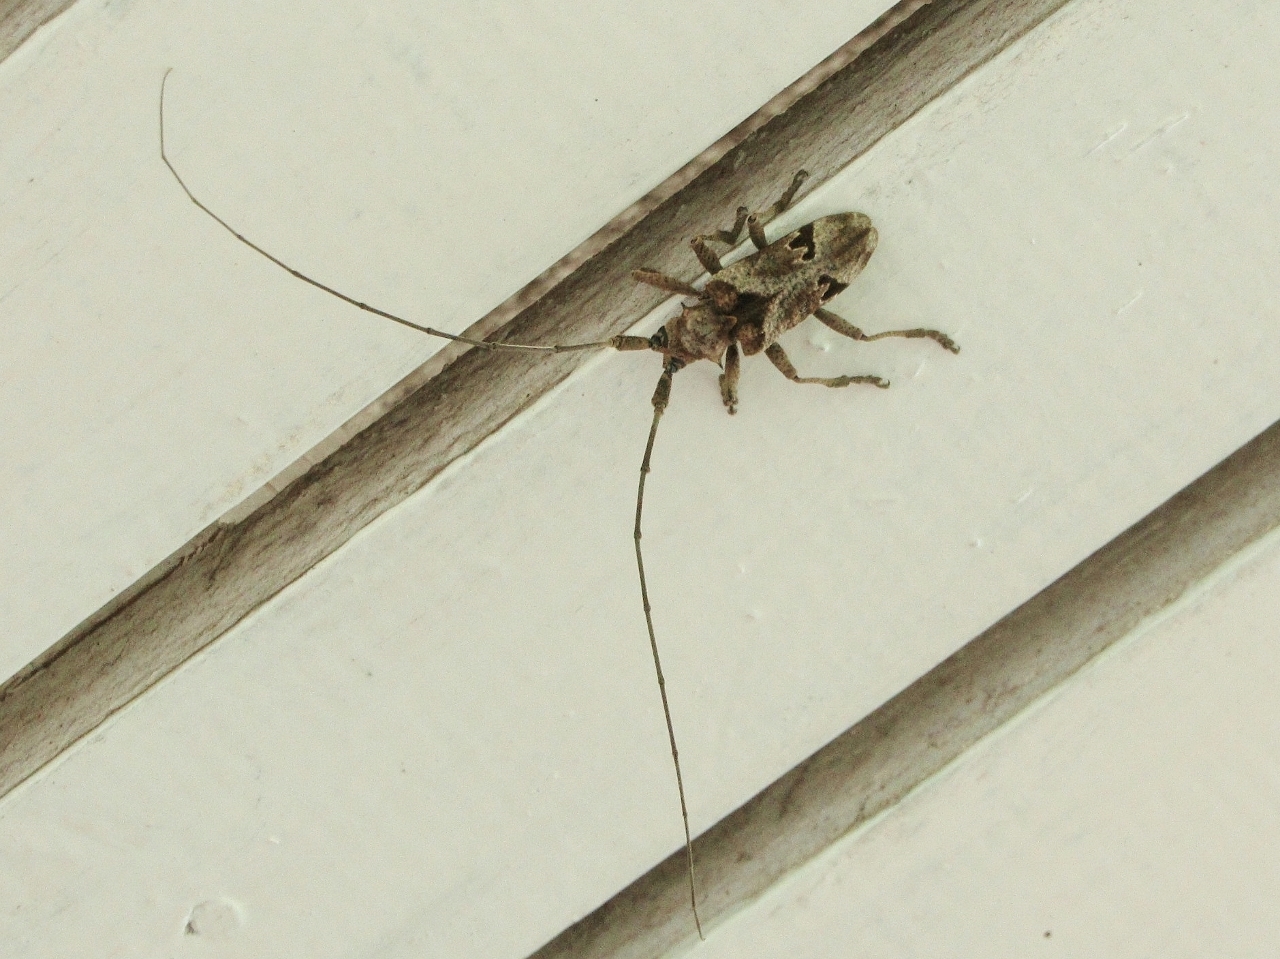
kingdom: Animalia
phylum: Arthropoda
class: Insecta
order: Coleoptera
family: Cerambycidae
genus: Monochamus
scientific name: Monochamus spectabilis
